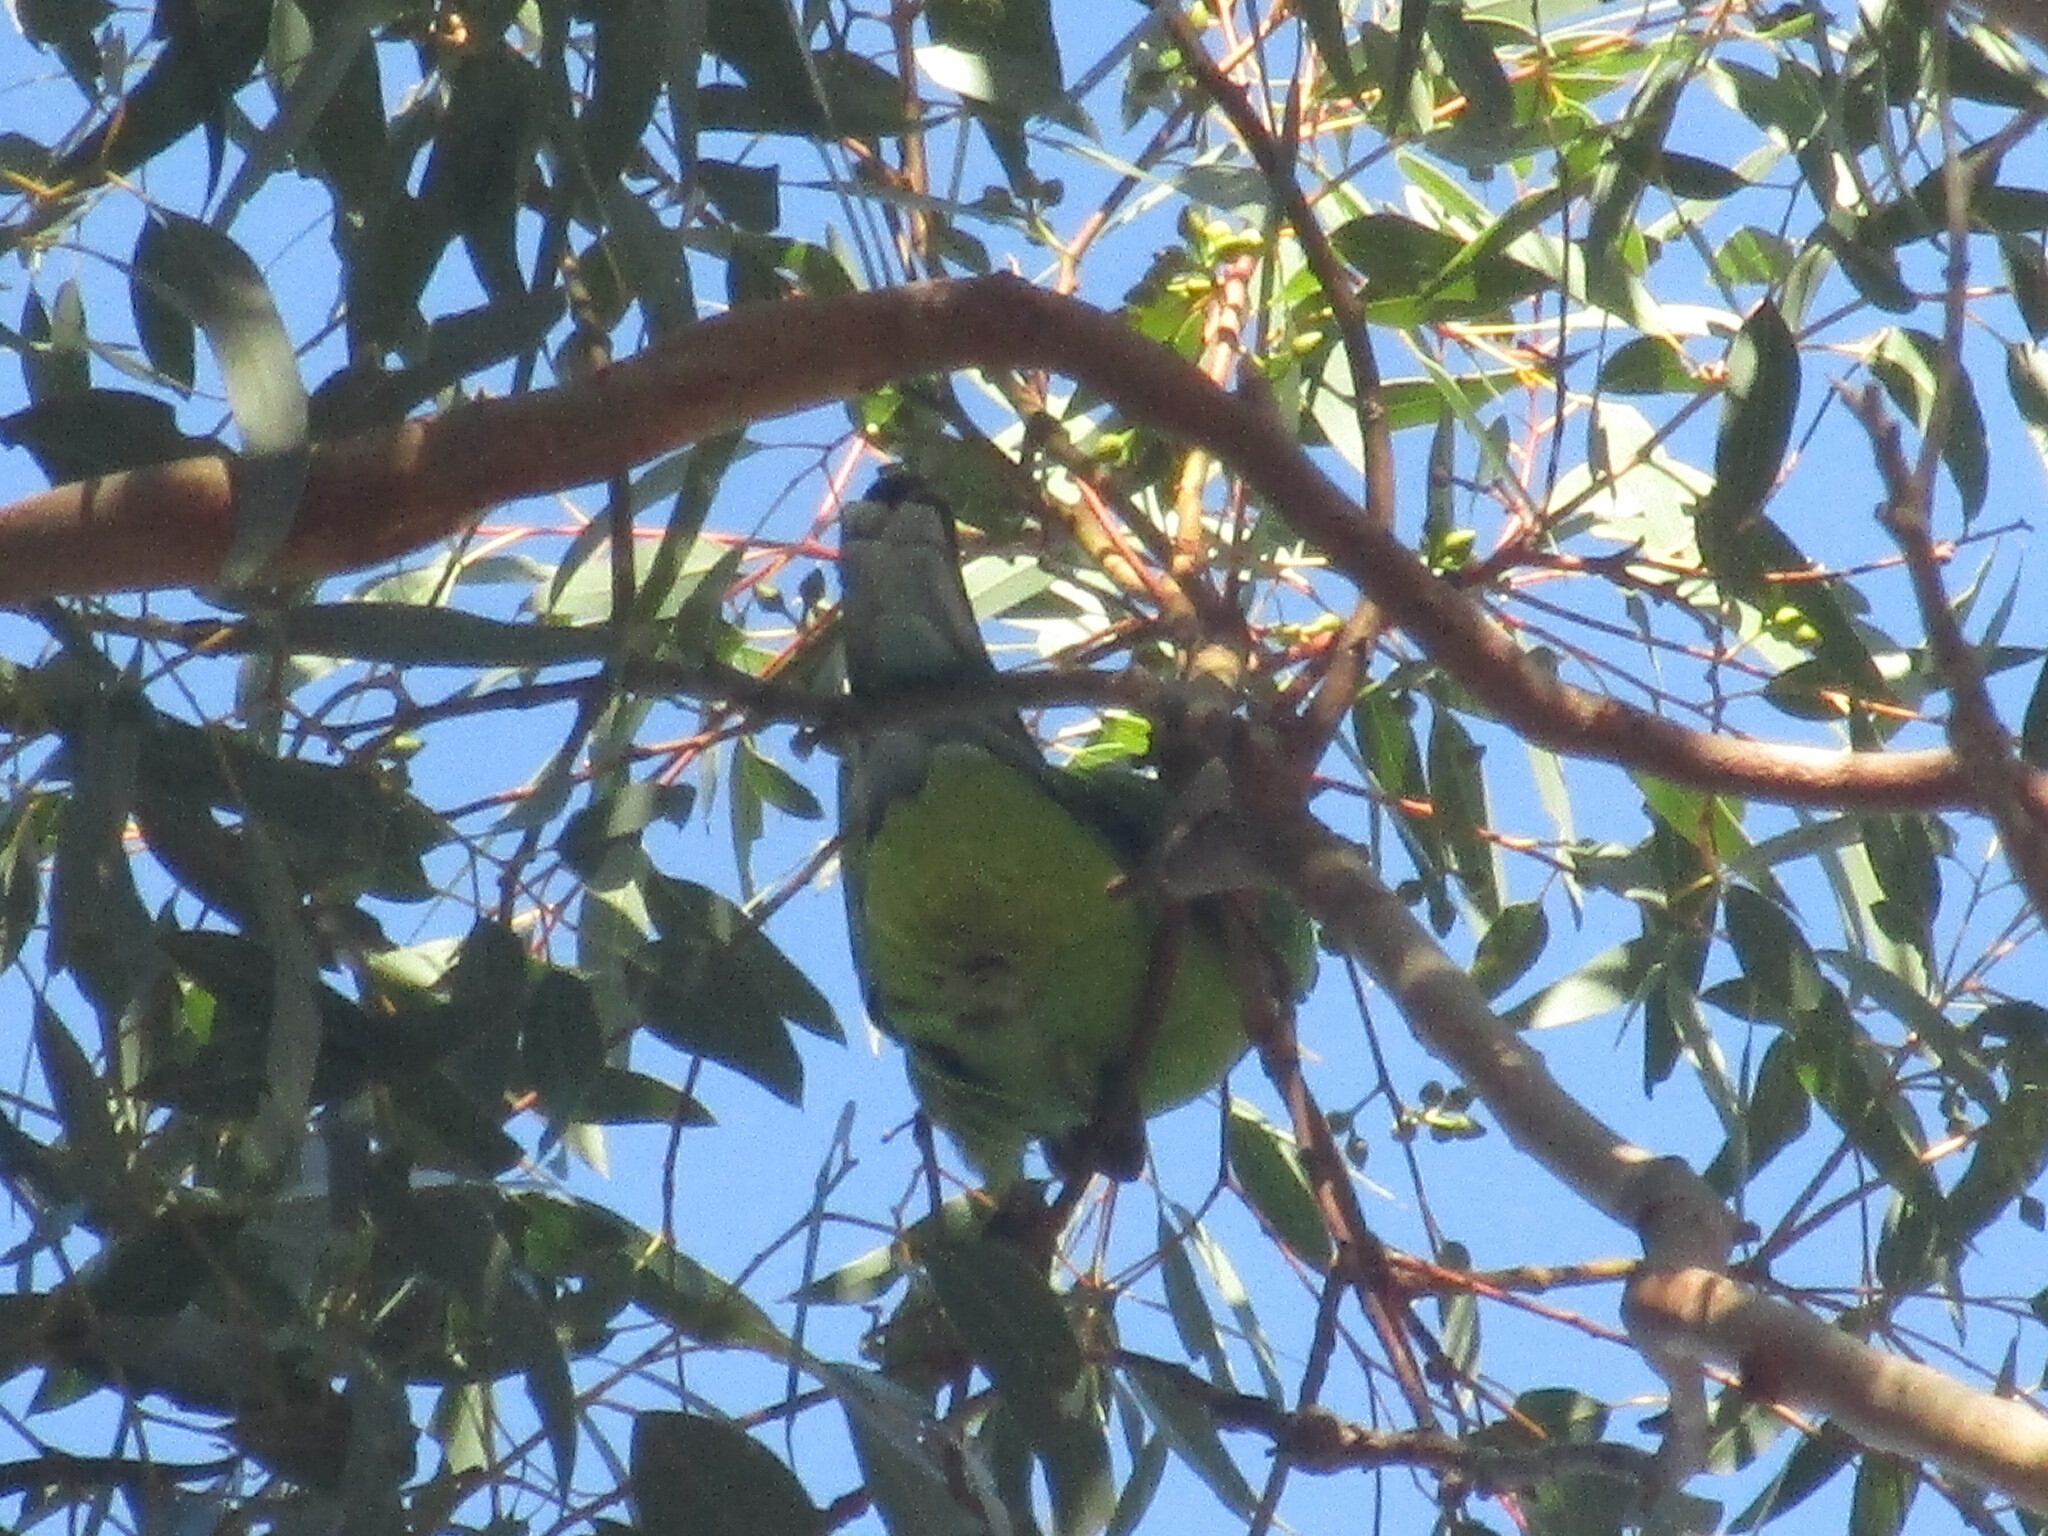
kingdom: Animalia
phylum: Chordata
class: Aves
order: Psittaciformes
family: Psittacidae
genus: Barnardius
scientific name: Barnardius zonarius
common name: Australian ringneck
